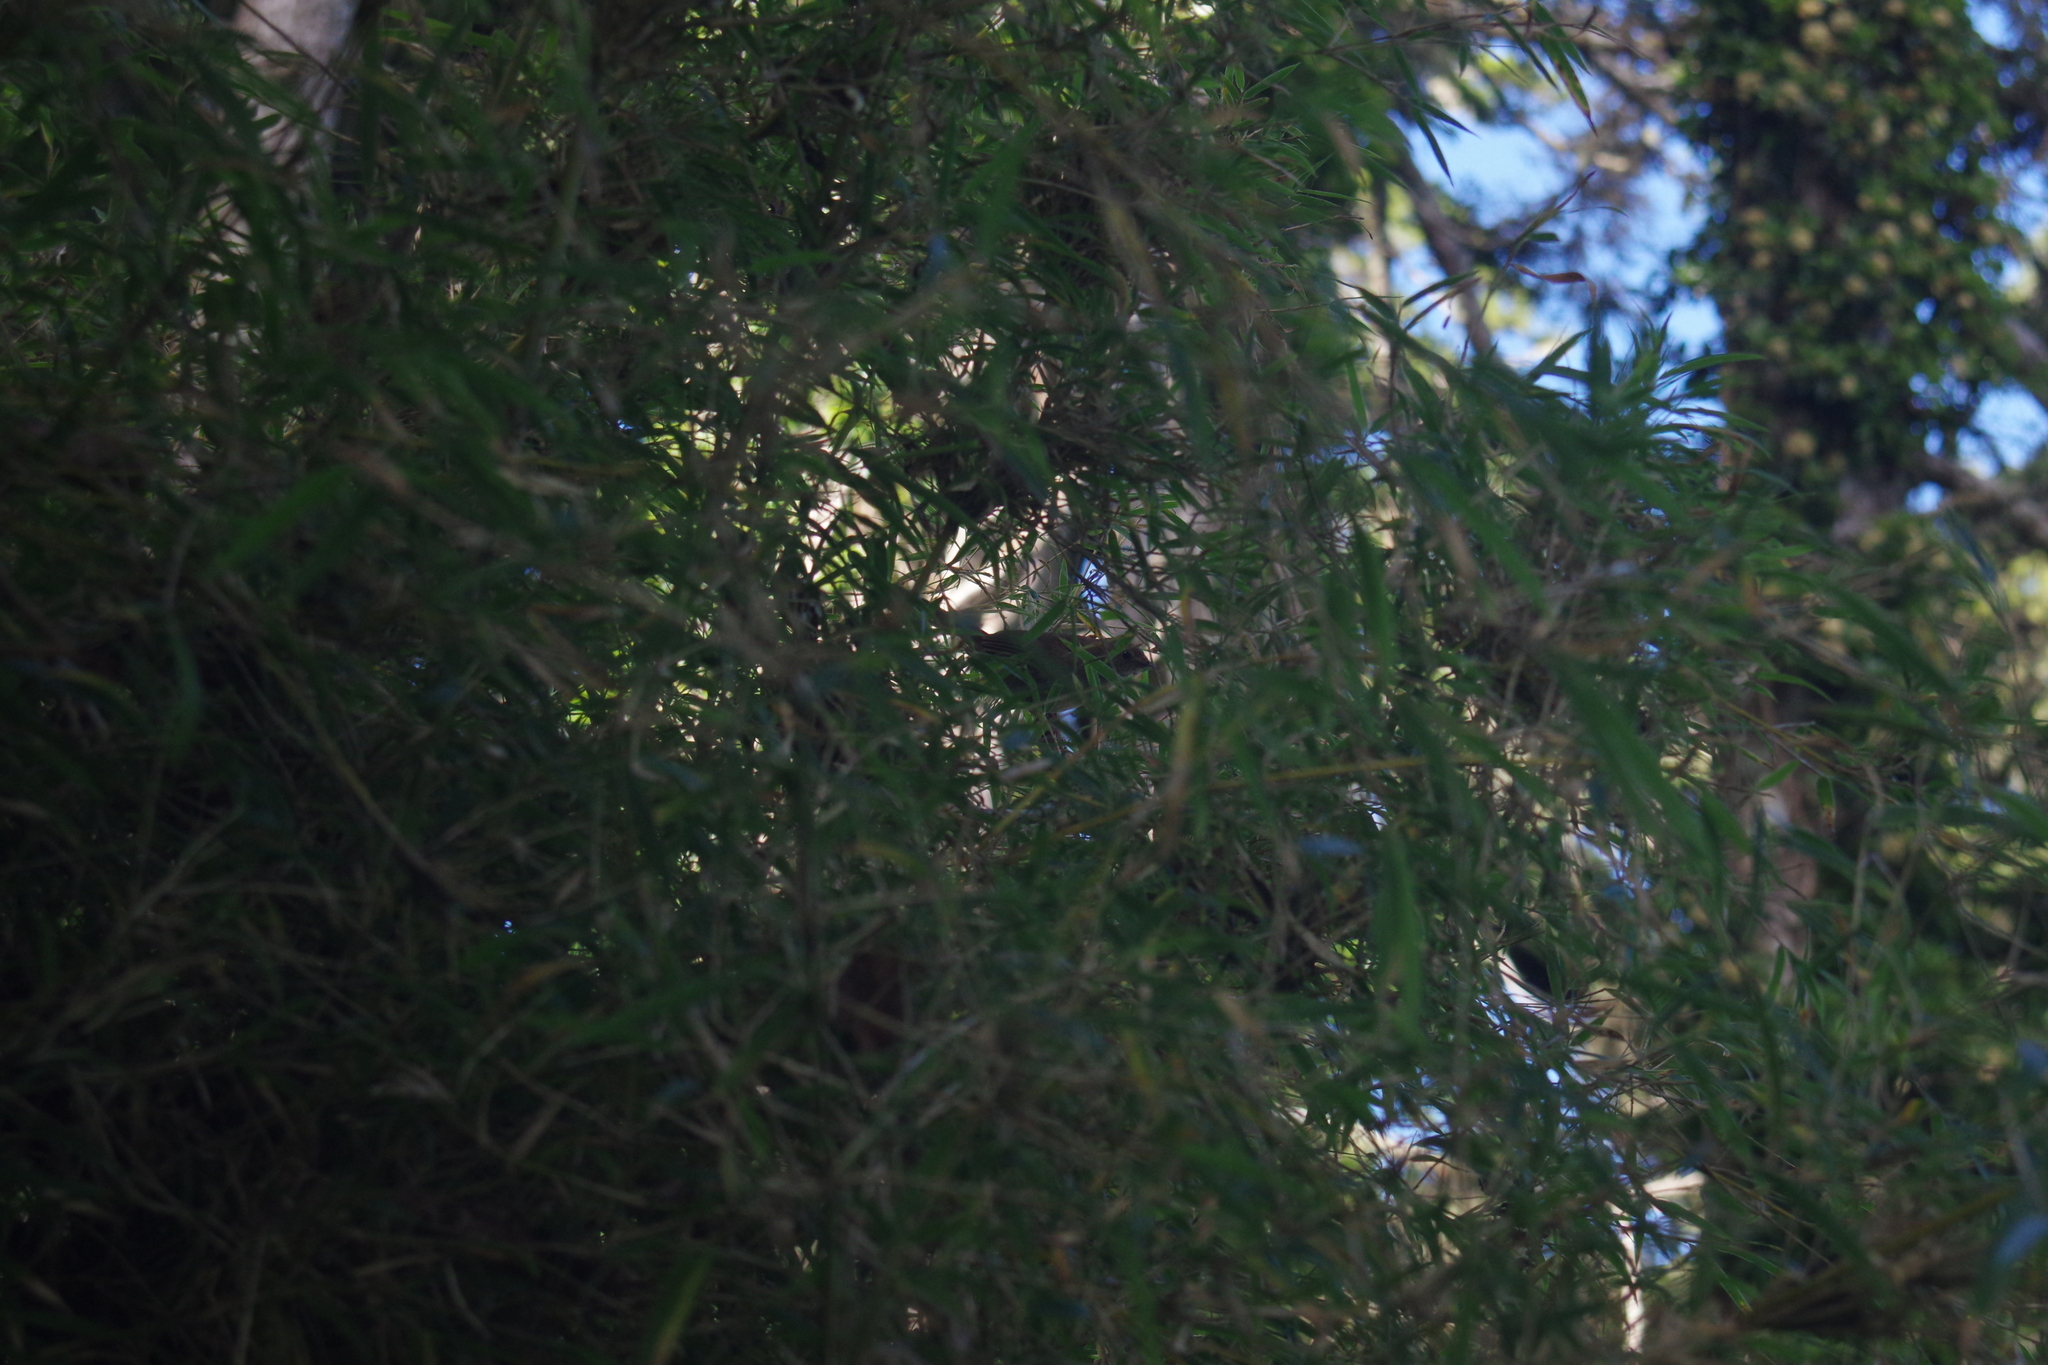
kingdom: Animalia
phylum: Chordata
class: Aves
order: Passeriformes
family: Locustellidae
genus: Locustella
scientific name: Locustella alishanensis
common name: Taiwan bush warbler
